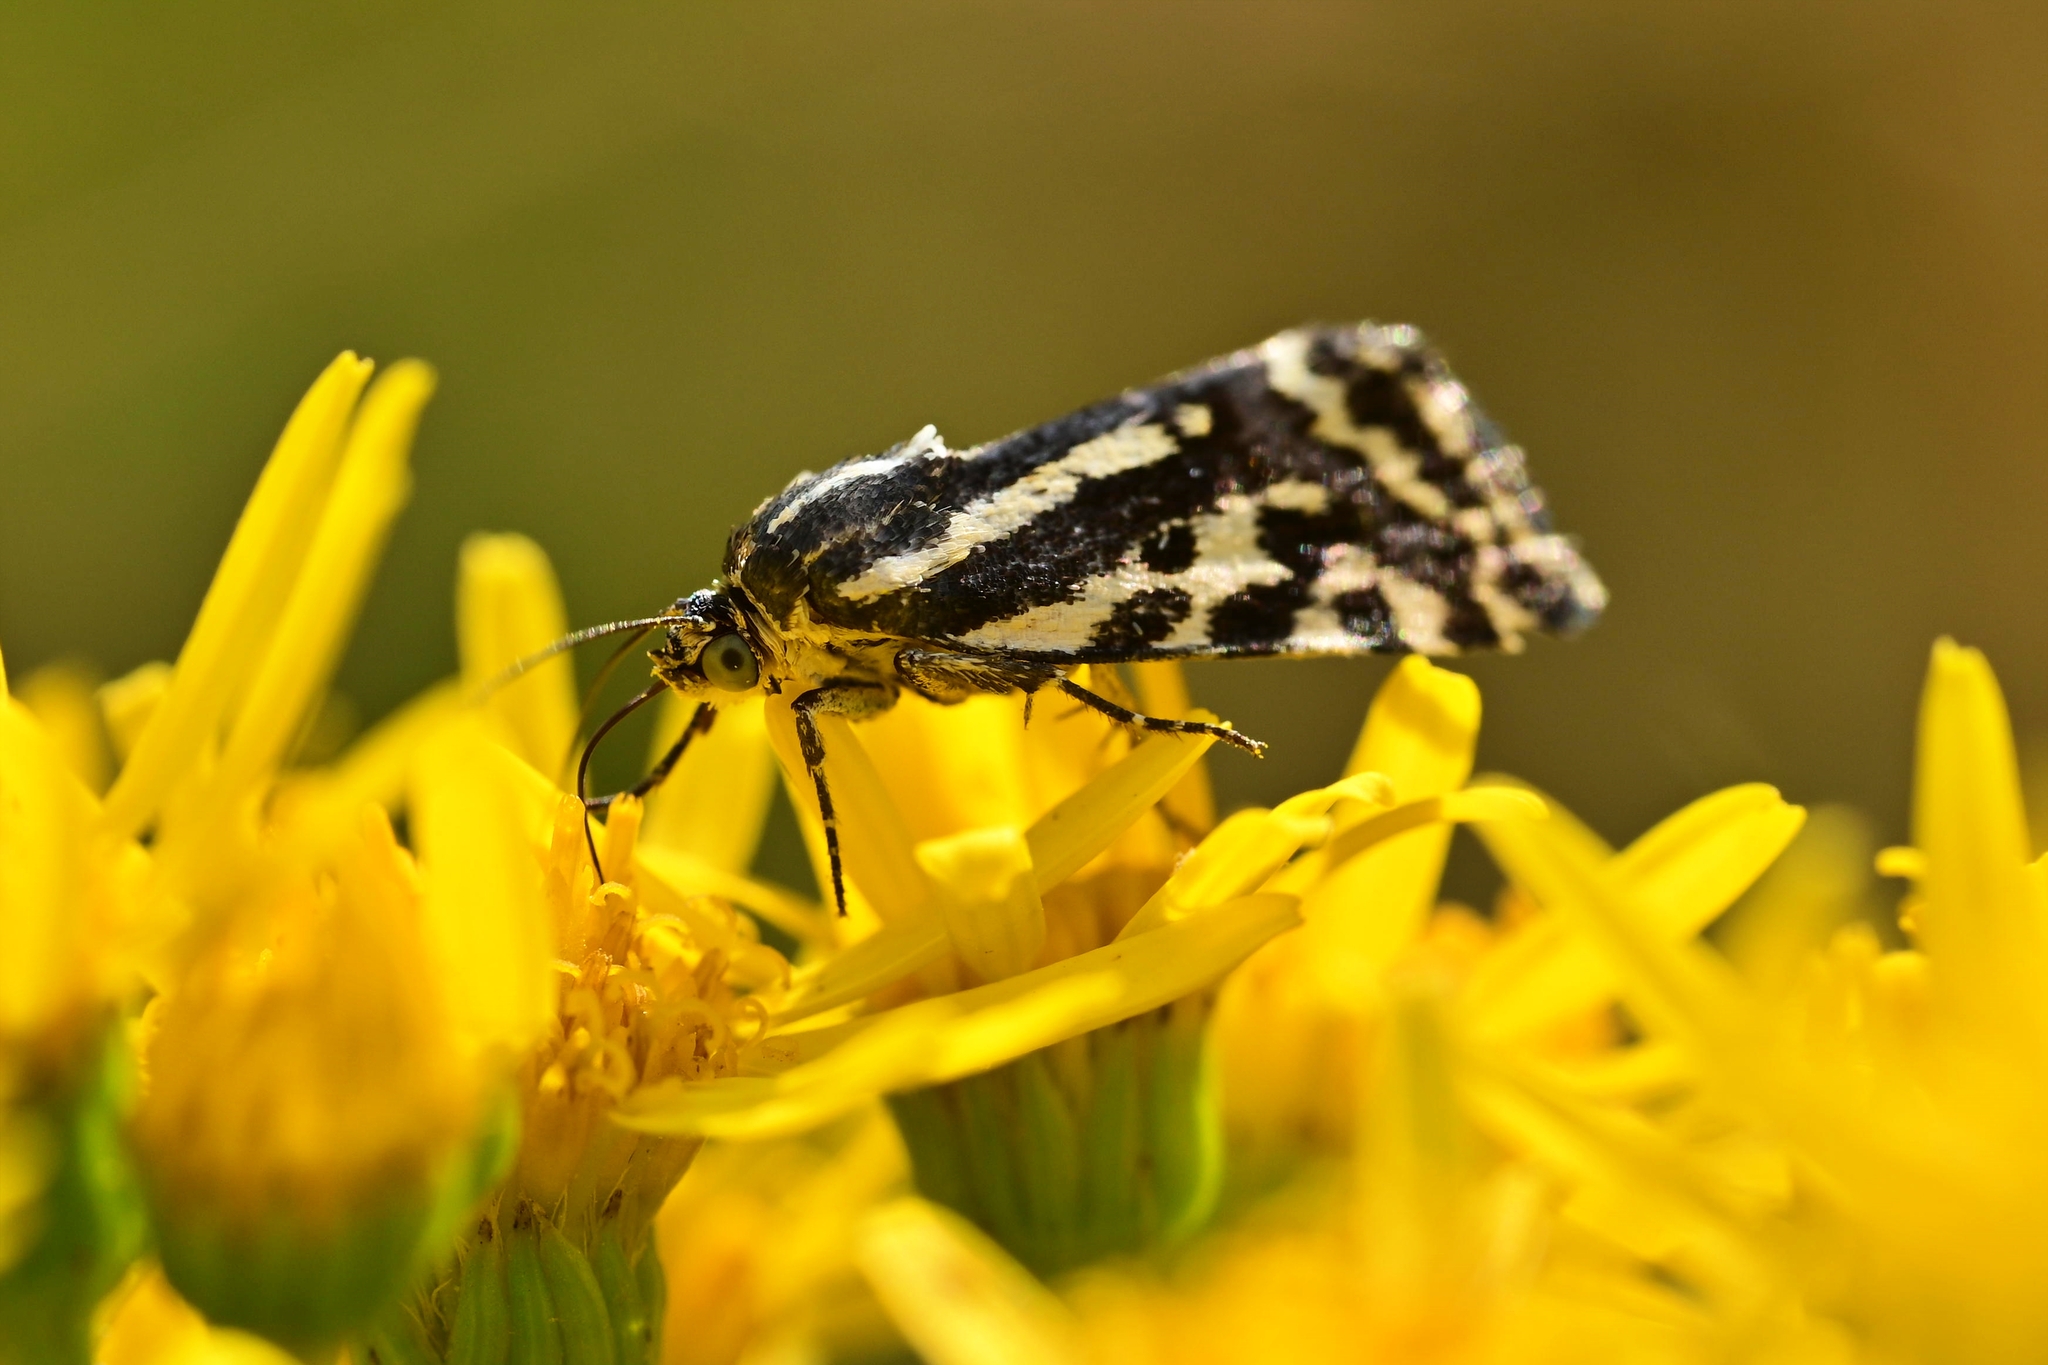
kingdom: Animalia
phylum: Arthropoda
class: Insecta
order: Lepidoptera
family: Noctuidae
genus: Acontia
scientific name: Acontia trabealis
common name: Spotted sulphur
